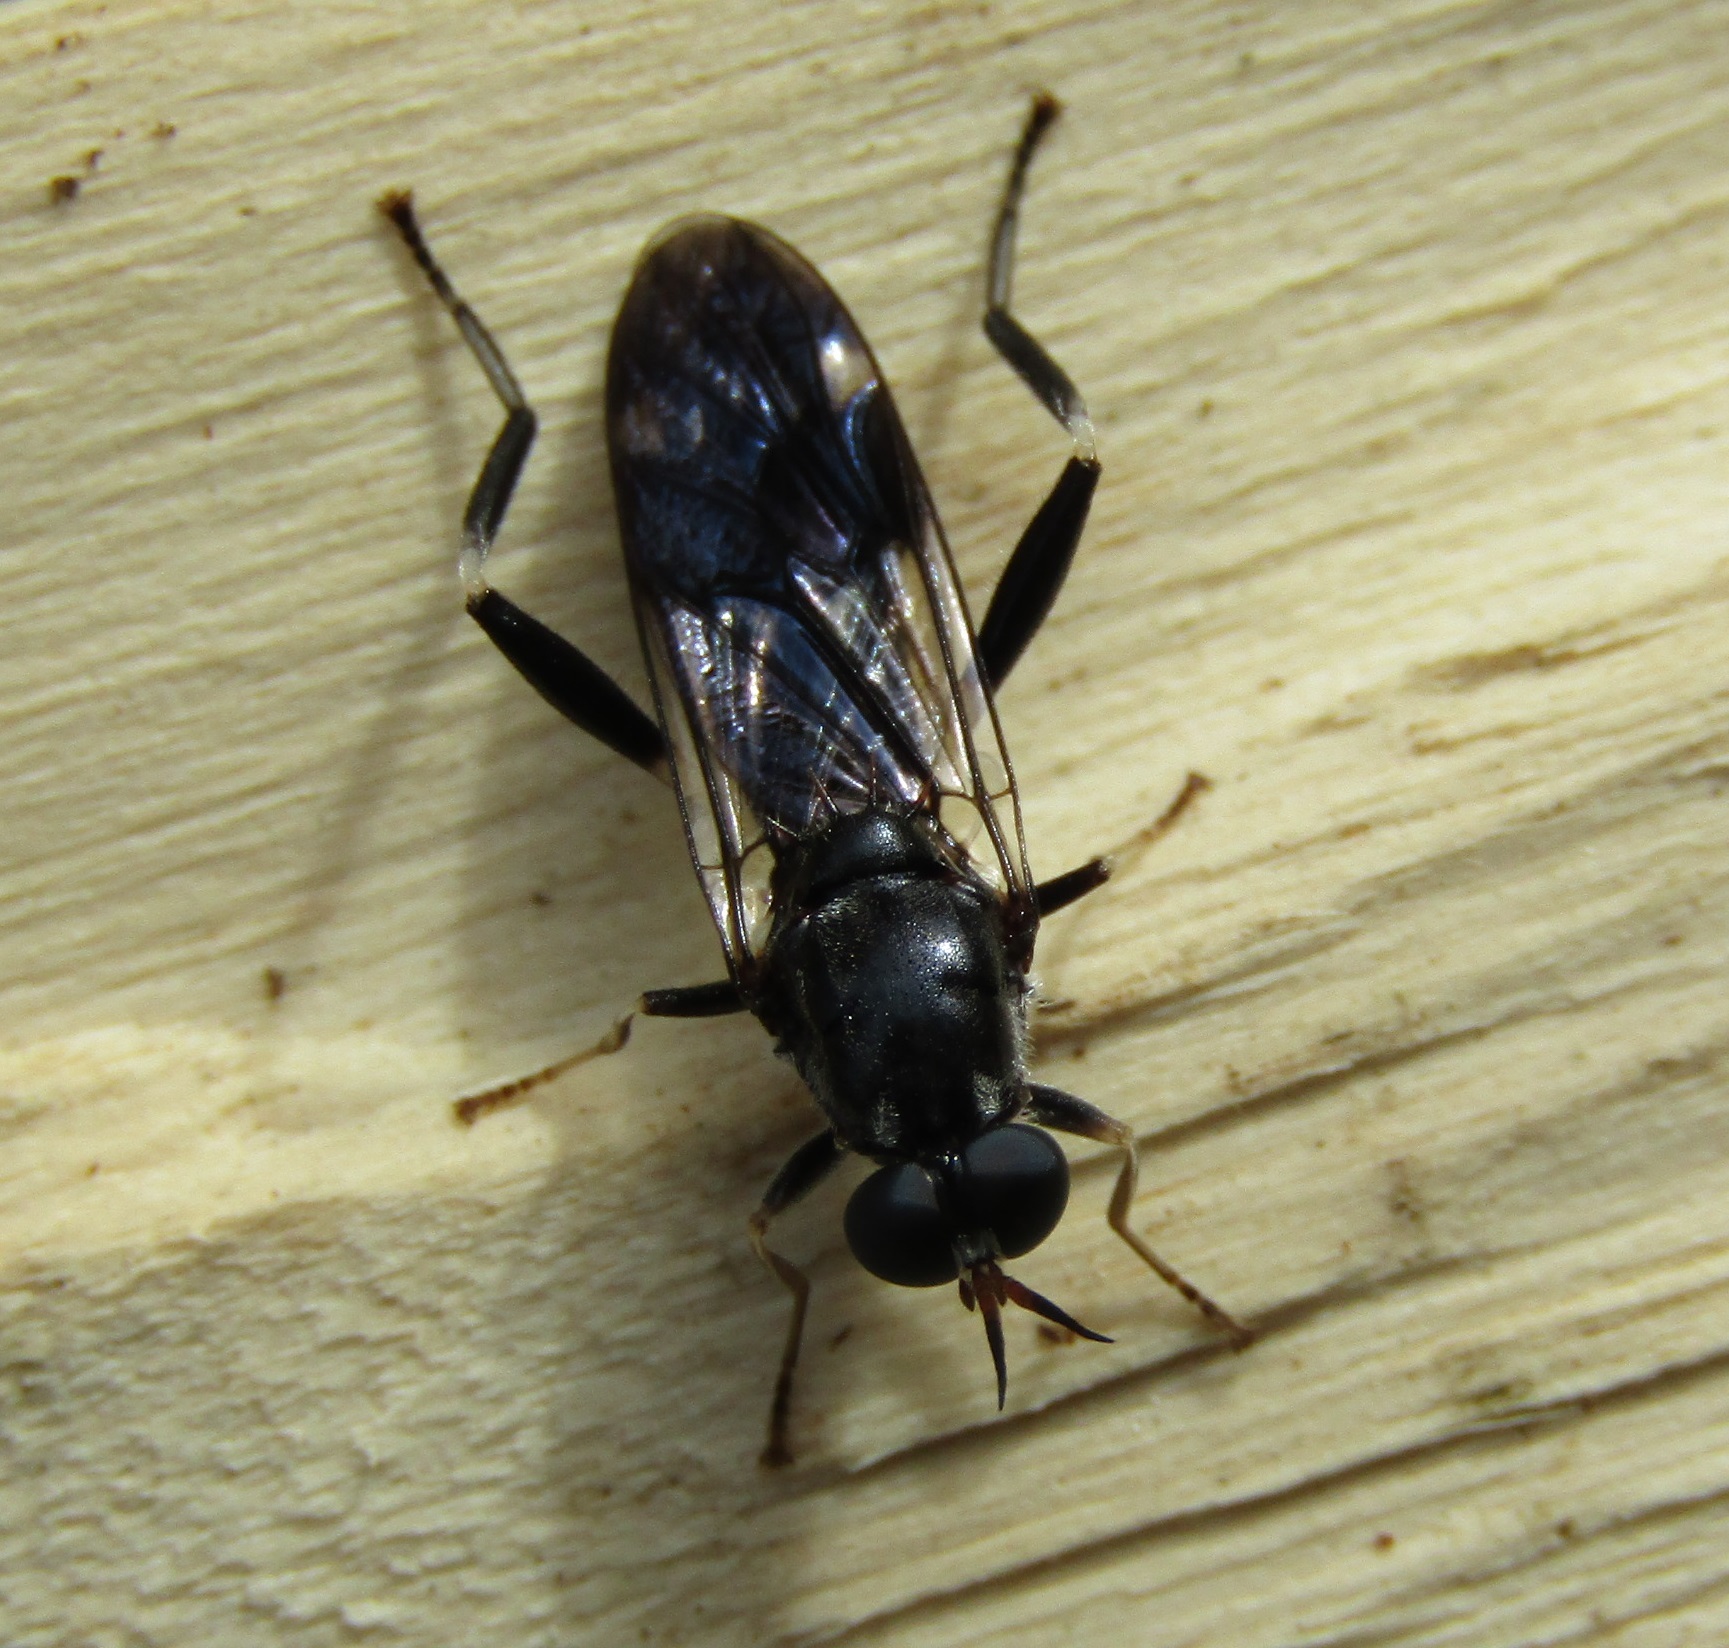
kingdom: Animalia
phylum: Arthropoda
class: Insecta
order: Diptera
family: Stratiomyidae
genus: Exaireta
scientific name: Exaireta spinigera
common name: Blue soldier fly
